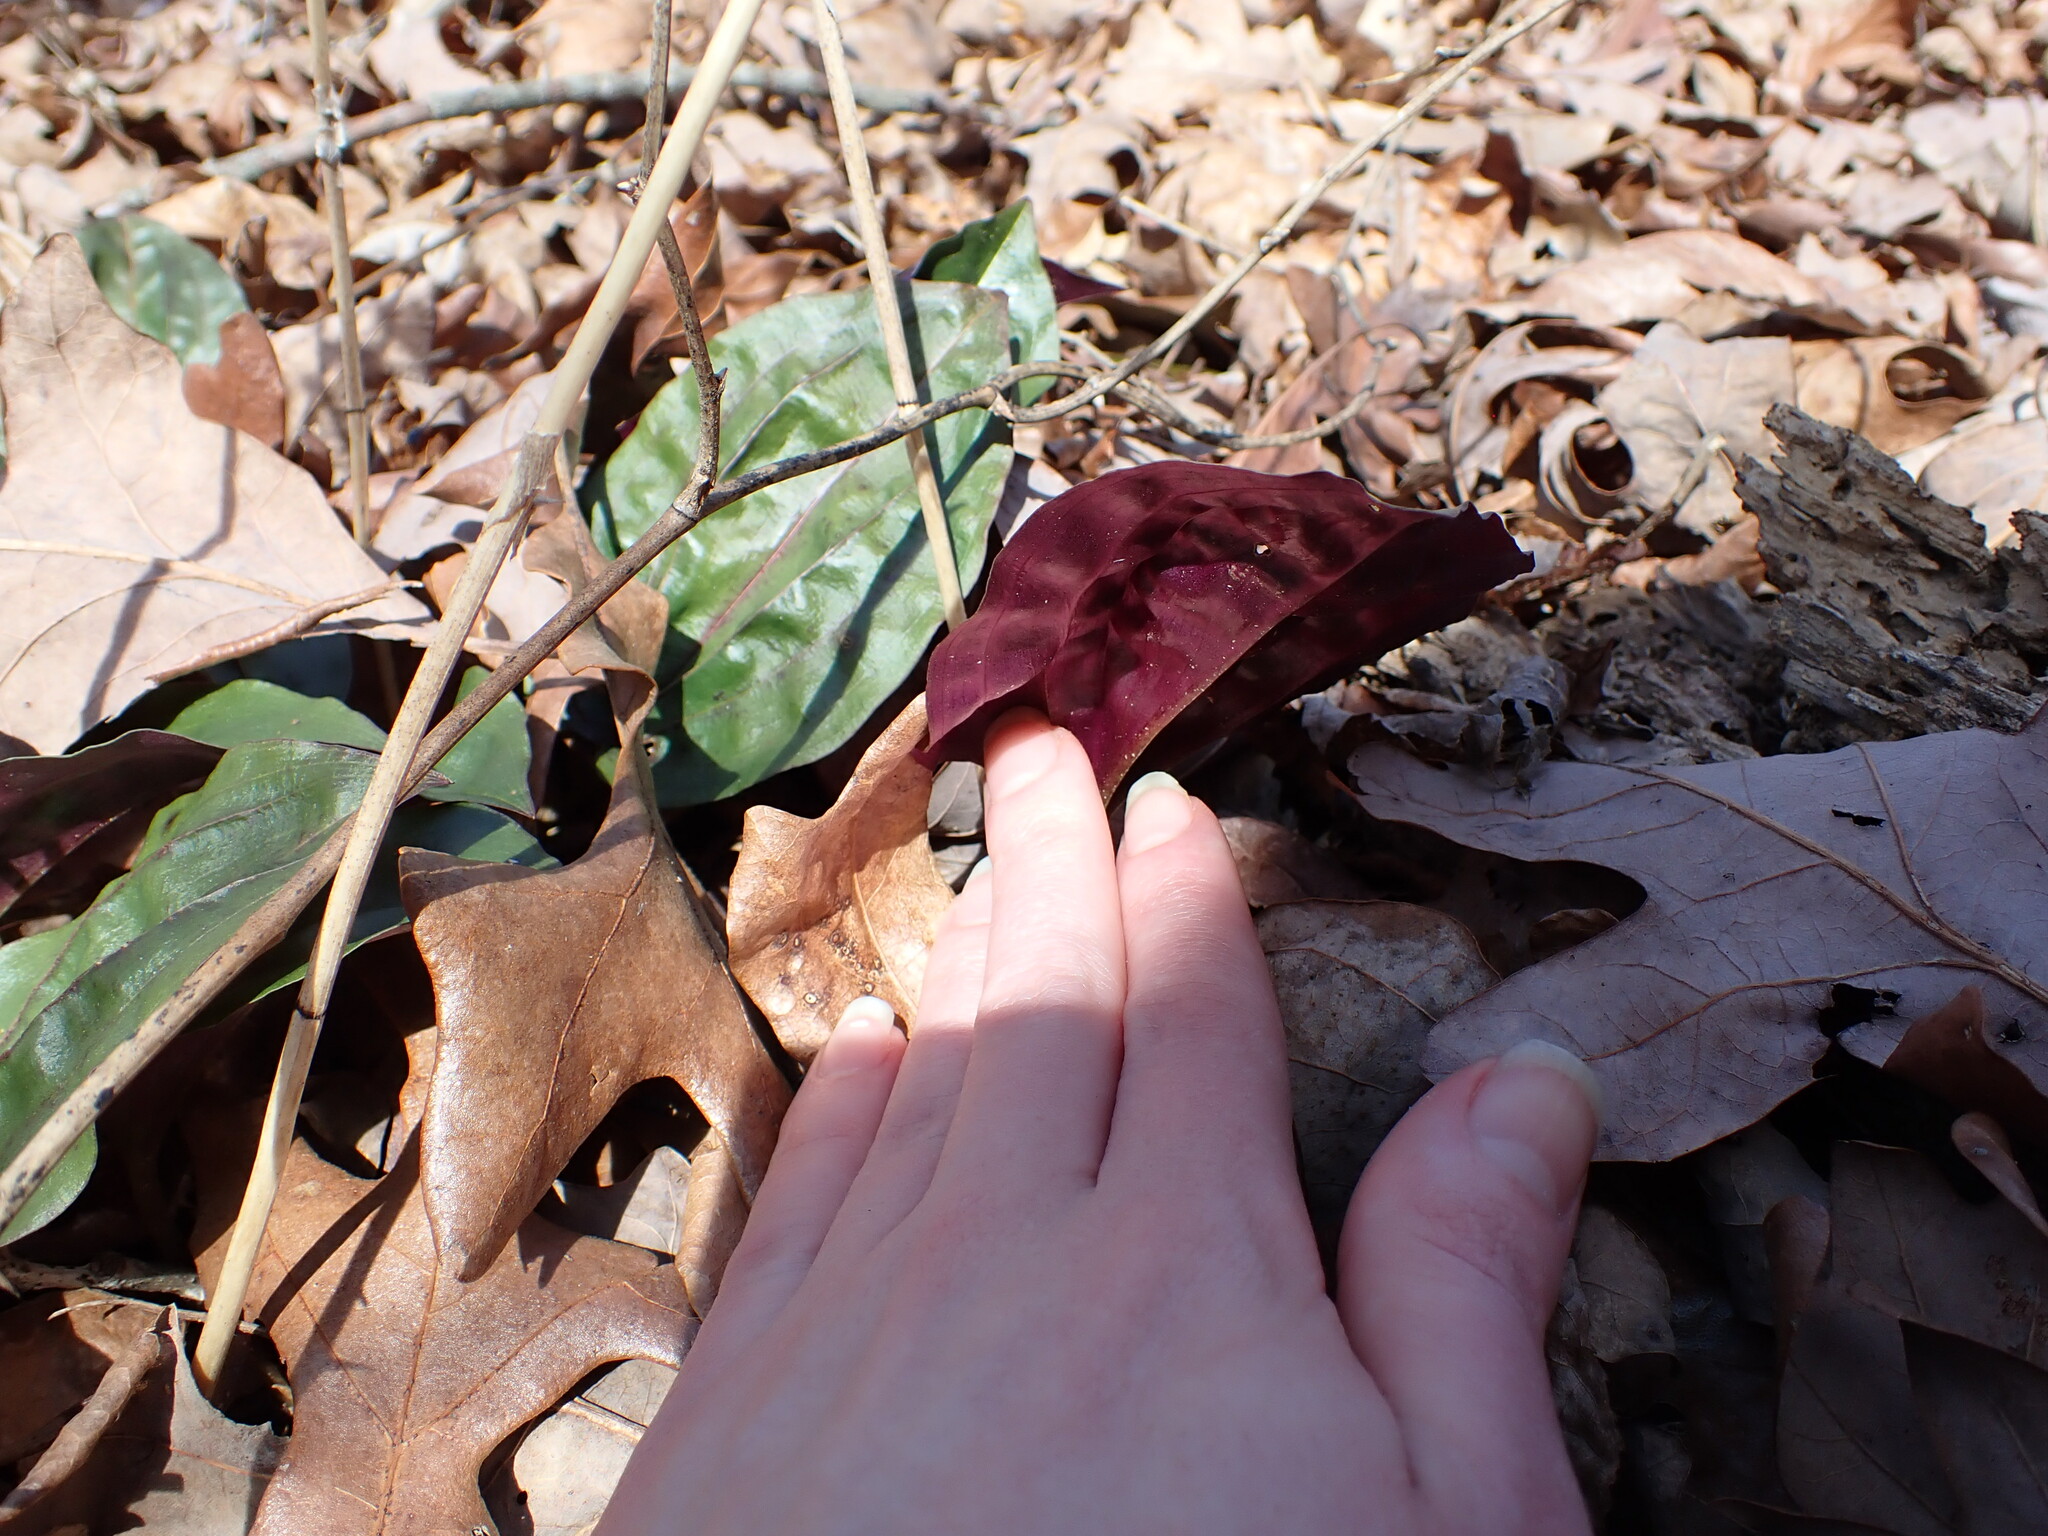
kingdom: Plantae
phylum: Tracheophyta
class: Liliopsida
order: Asparagales
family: Orchidaceae
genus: Tipularia
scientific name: Tipularia discolor
